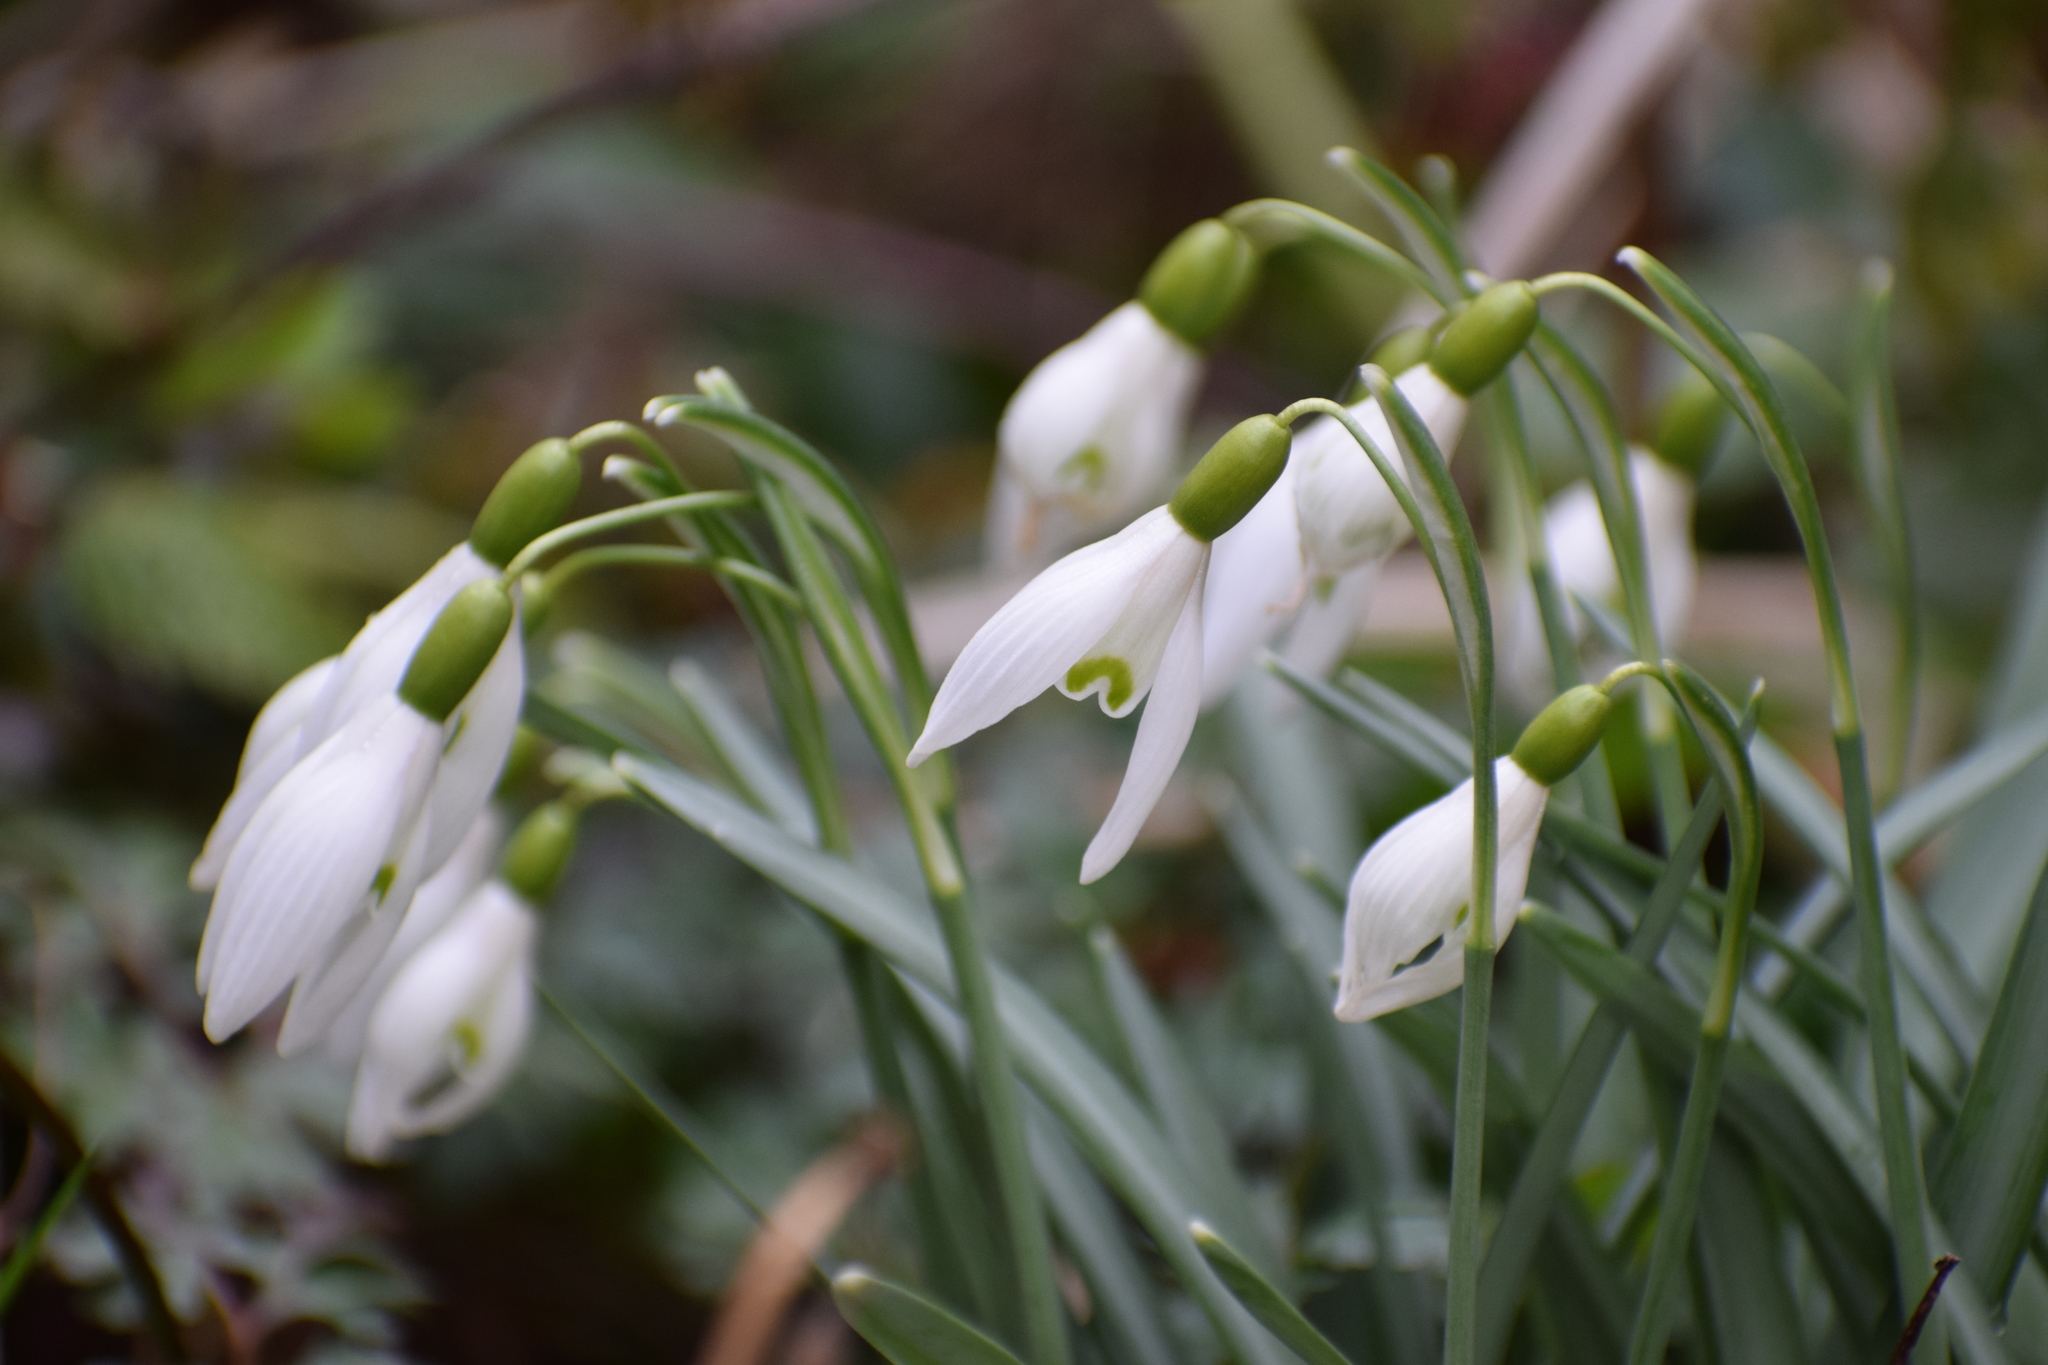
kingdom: Plantae
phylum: Tracheophyta
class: Liliopsida
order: Asparagales
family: Amaryllidaceae
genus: Galanthus
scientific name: Galanthus nivalis
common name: Snowdrop
